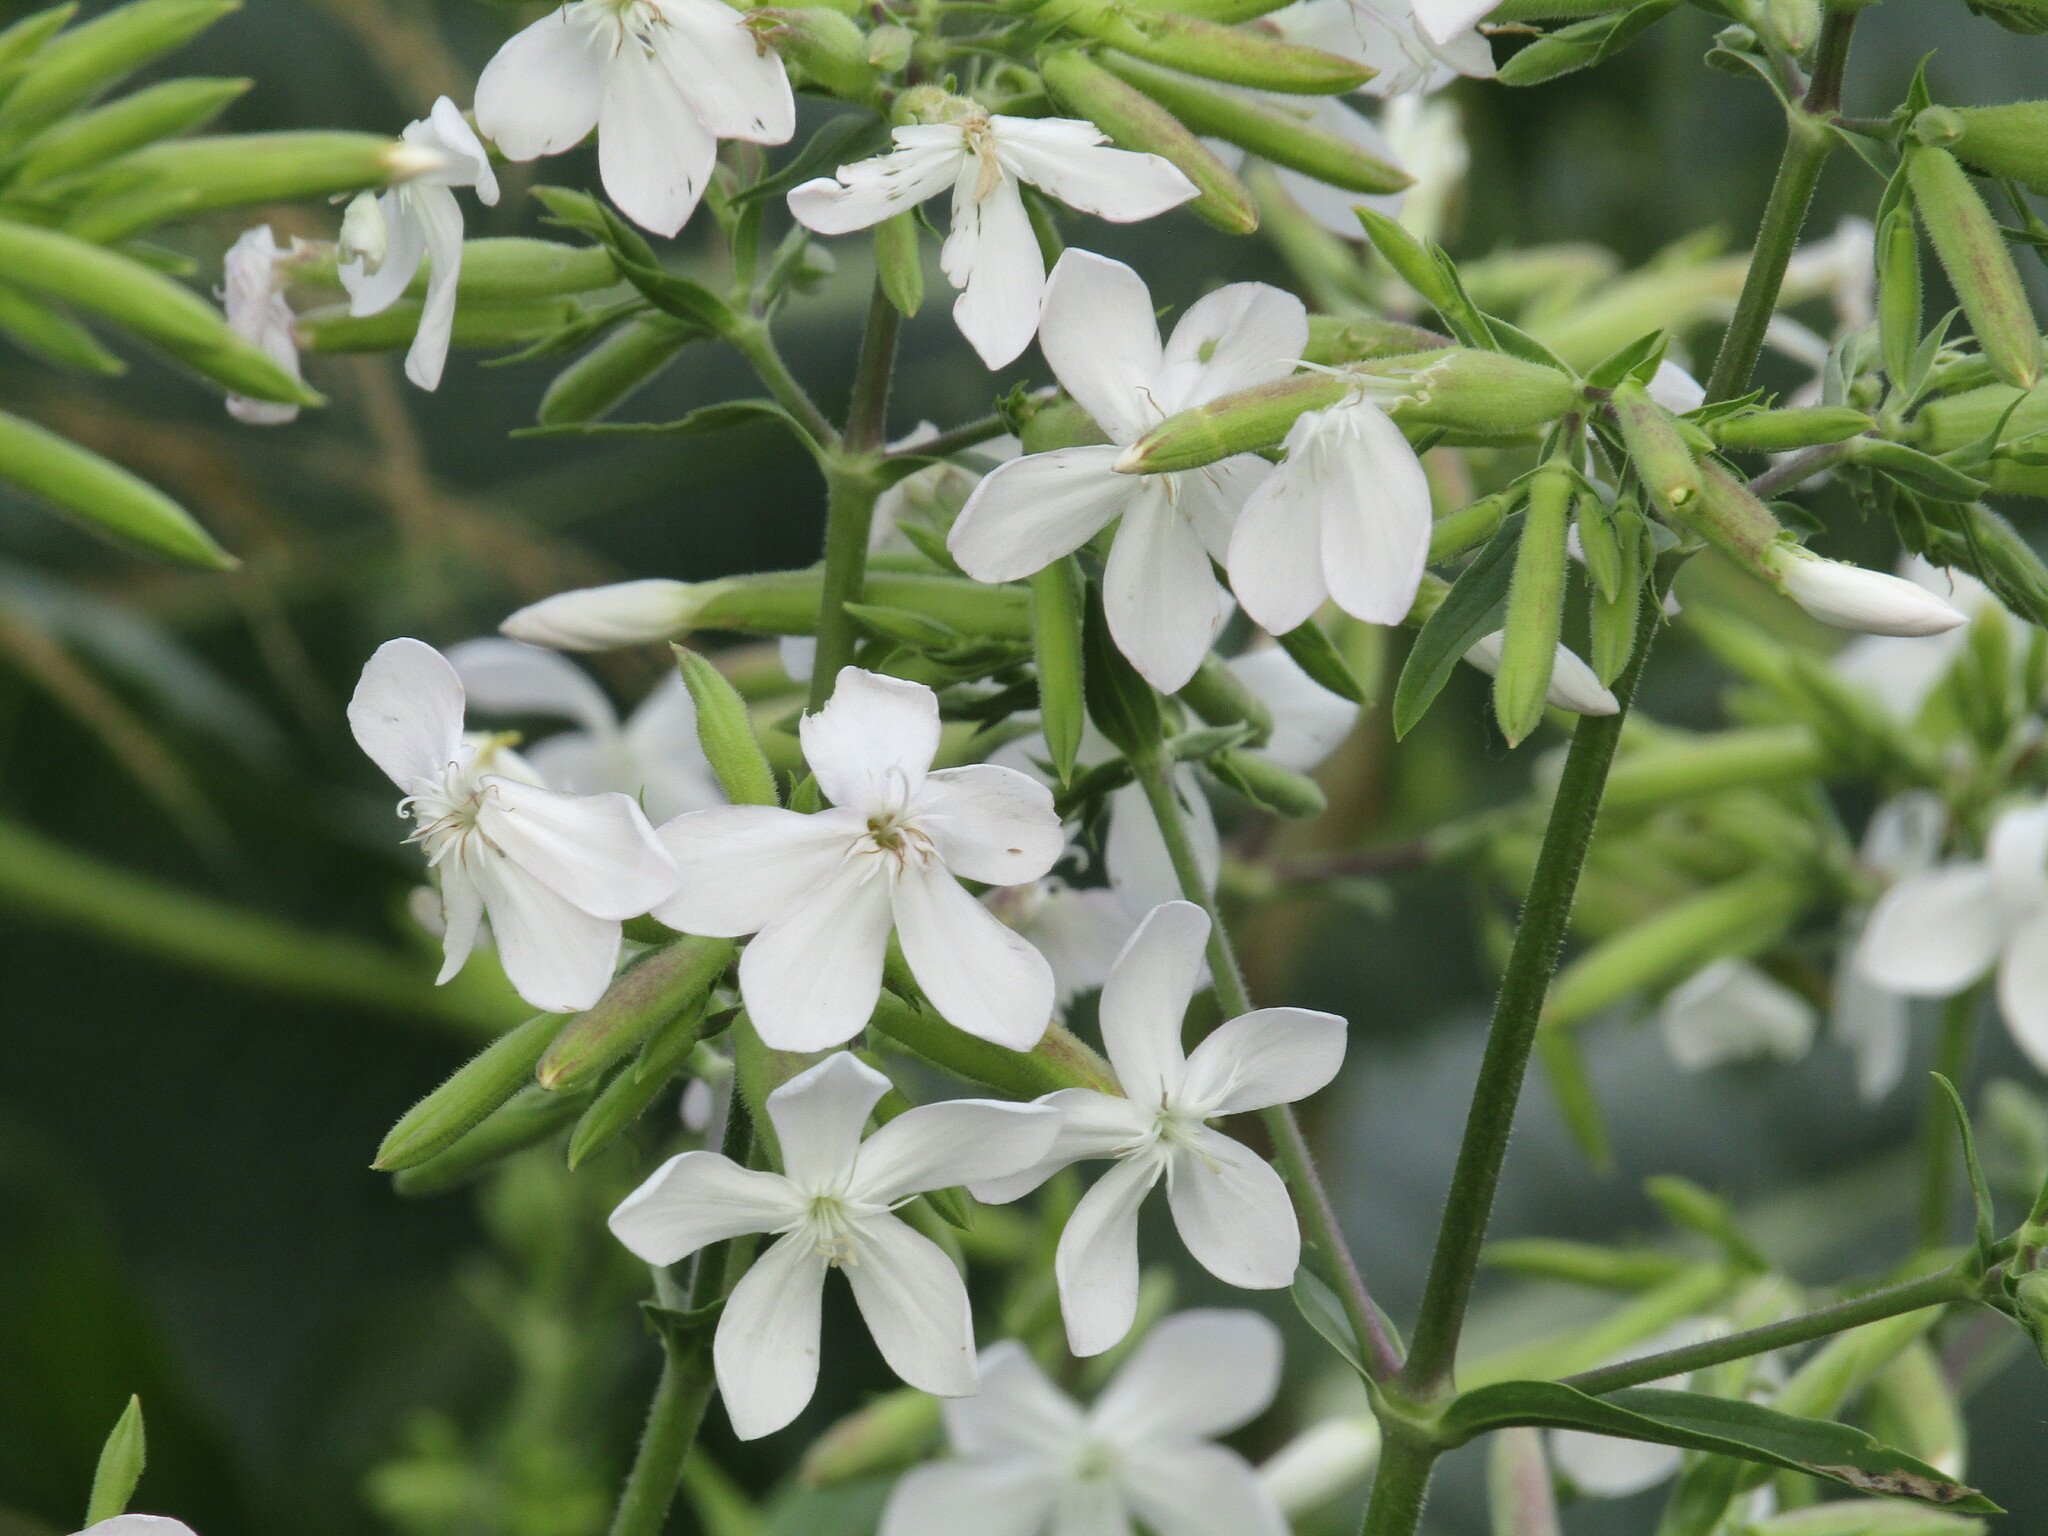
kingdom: Plantae
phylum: Tracheophyta
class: Magnoliopsida
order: Caryophyllales
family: Caryophyllaceae
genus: Saponaria
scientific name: Saponaria officinalis
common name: Soapwort
